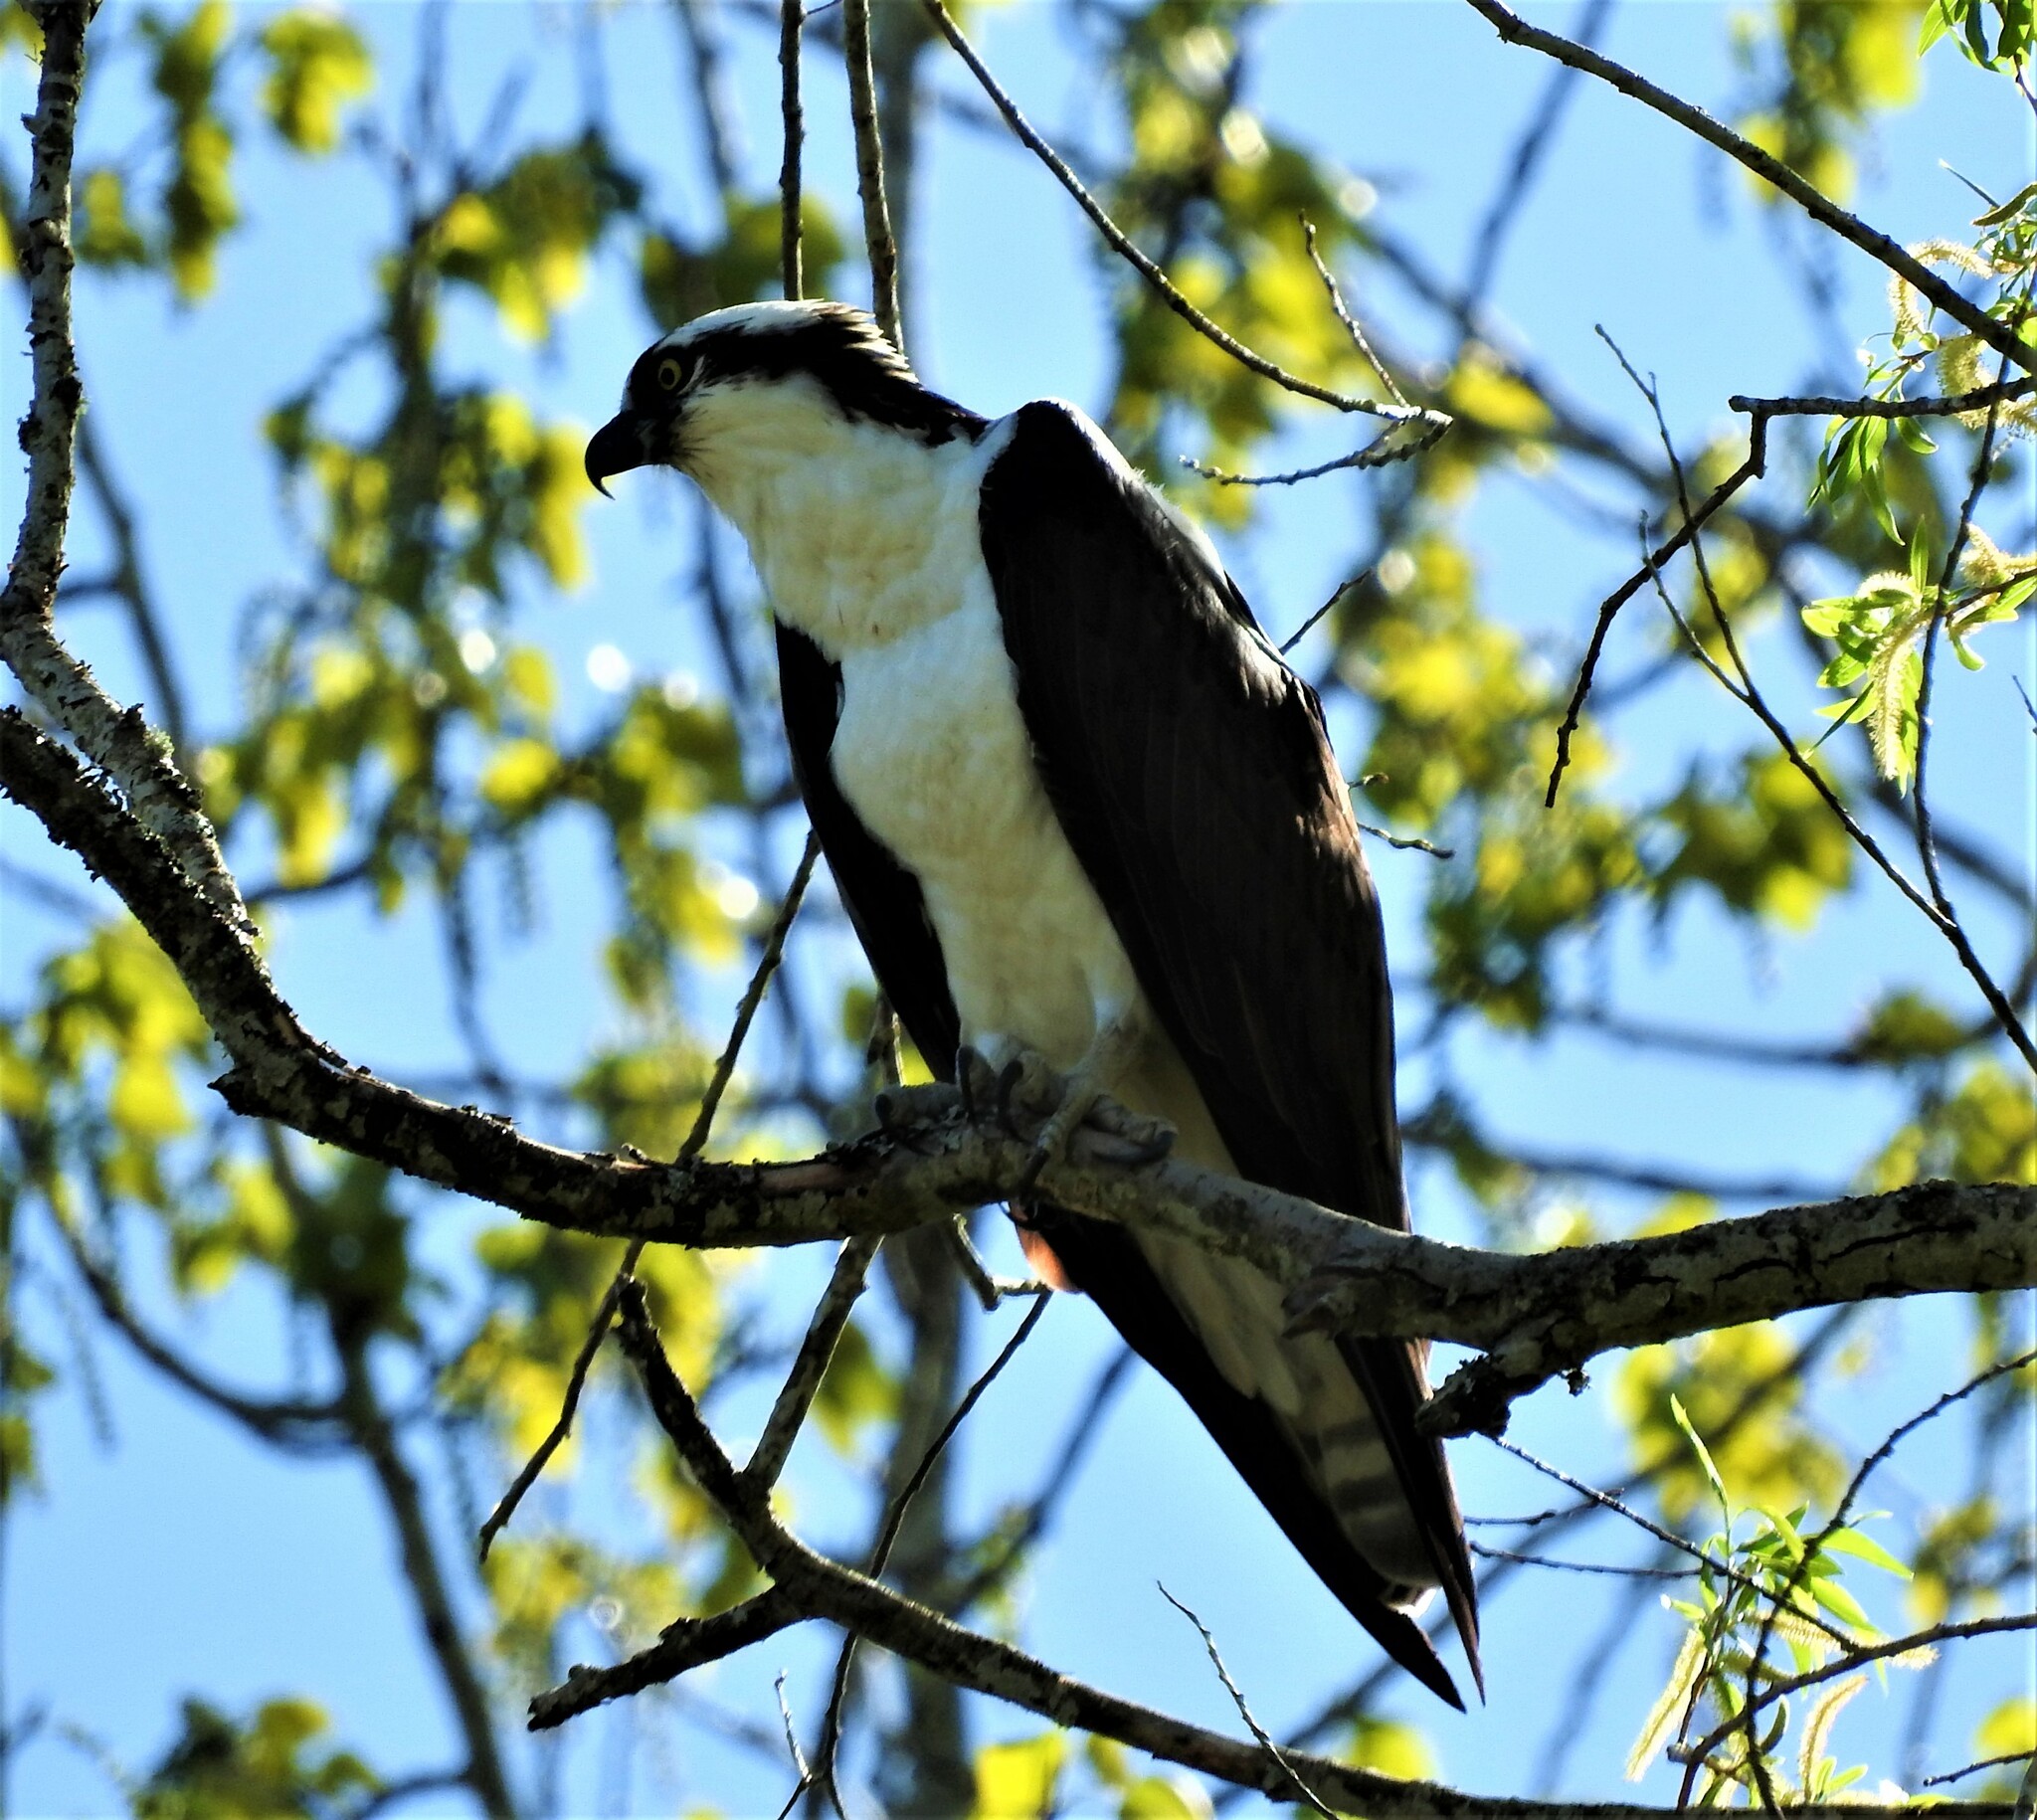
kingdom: Animalia
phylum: Chordata
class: Aves
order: Accipitriformes
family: Pandionidae
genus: Pandion
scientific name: Pandion haliaetus
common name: Osprey
